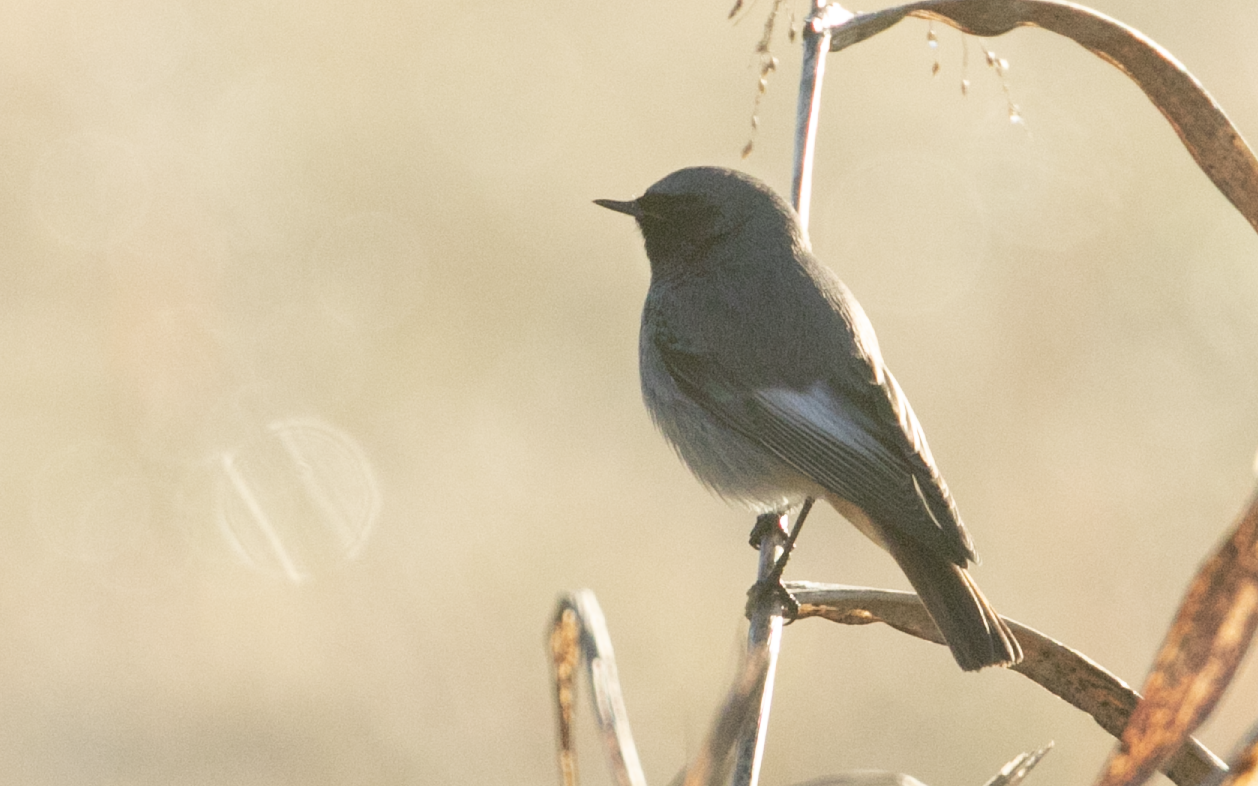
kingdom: Animalia
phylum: Chordata
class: Aves
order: Passeriformes
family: Muscicapidae
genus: Phoenicurus
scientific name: Phoenicurus ochruros
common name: Black redstart
